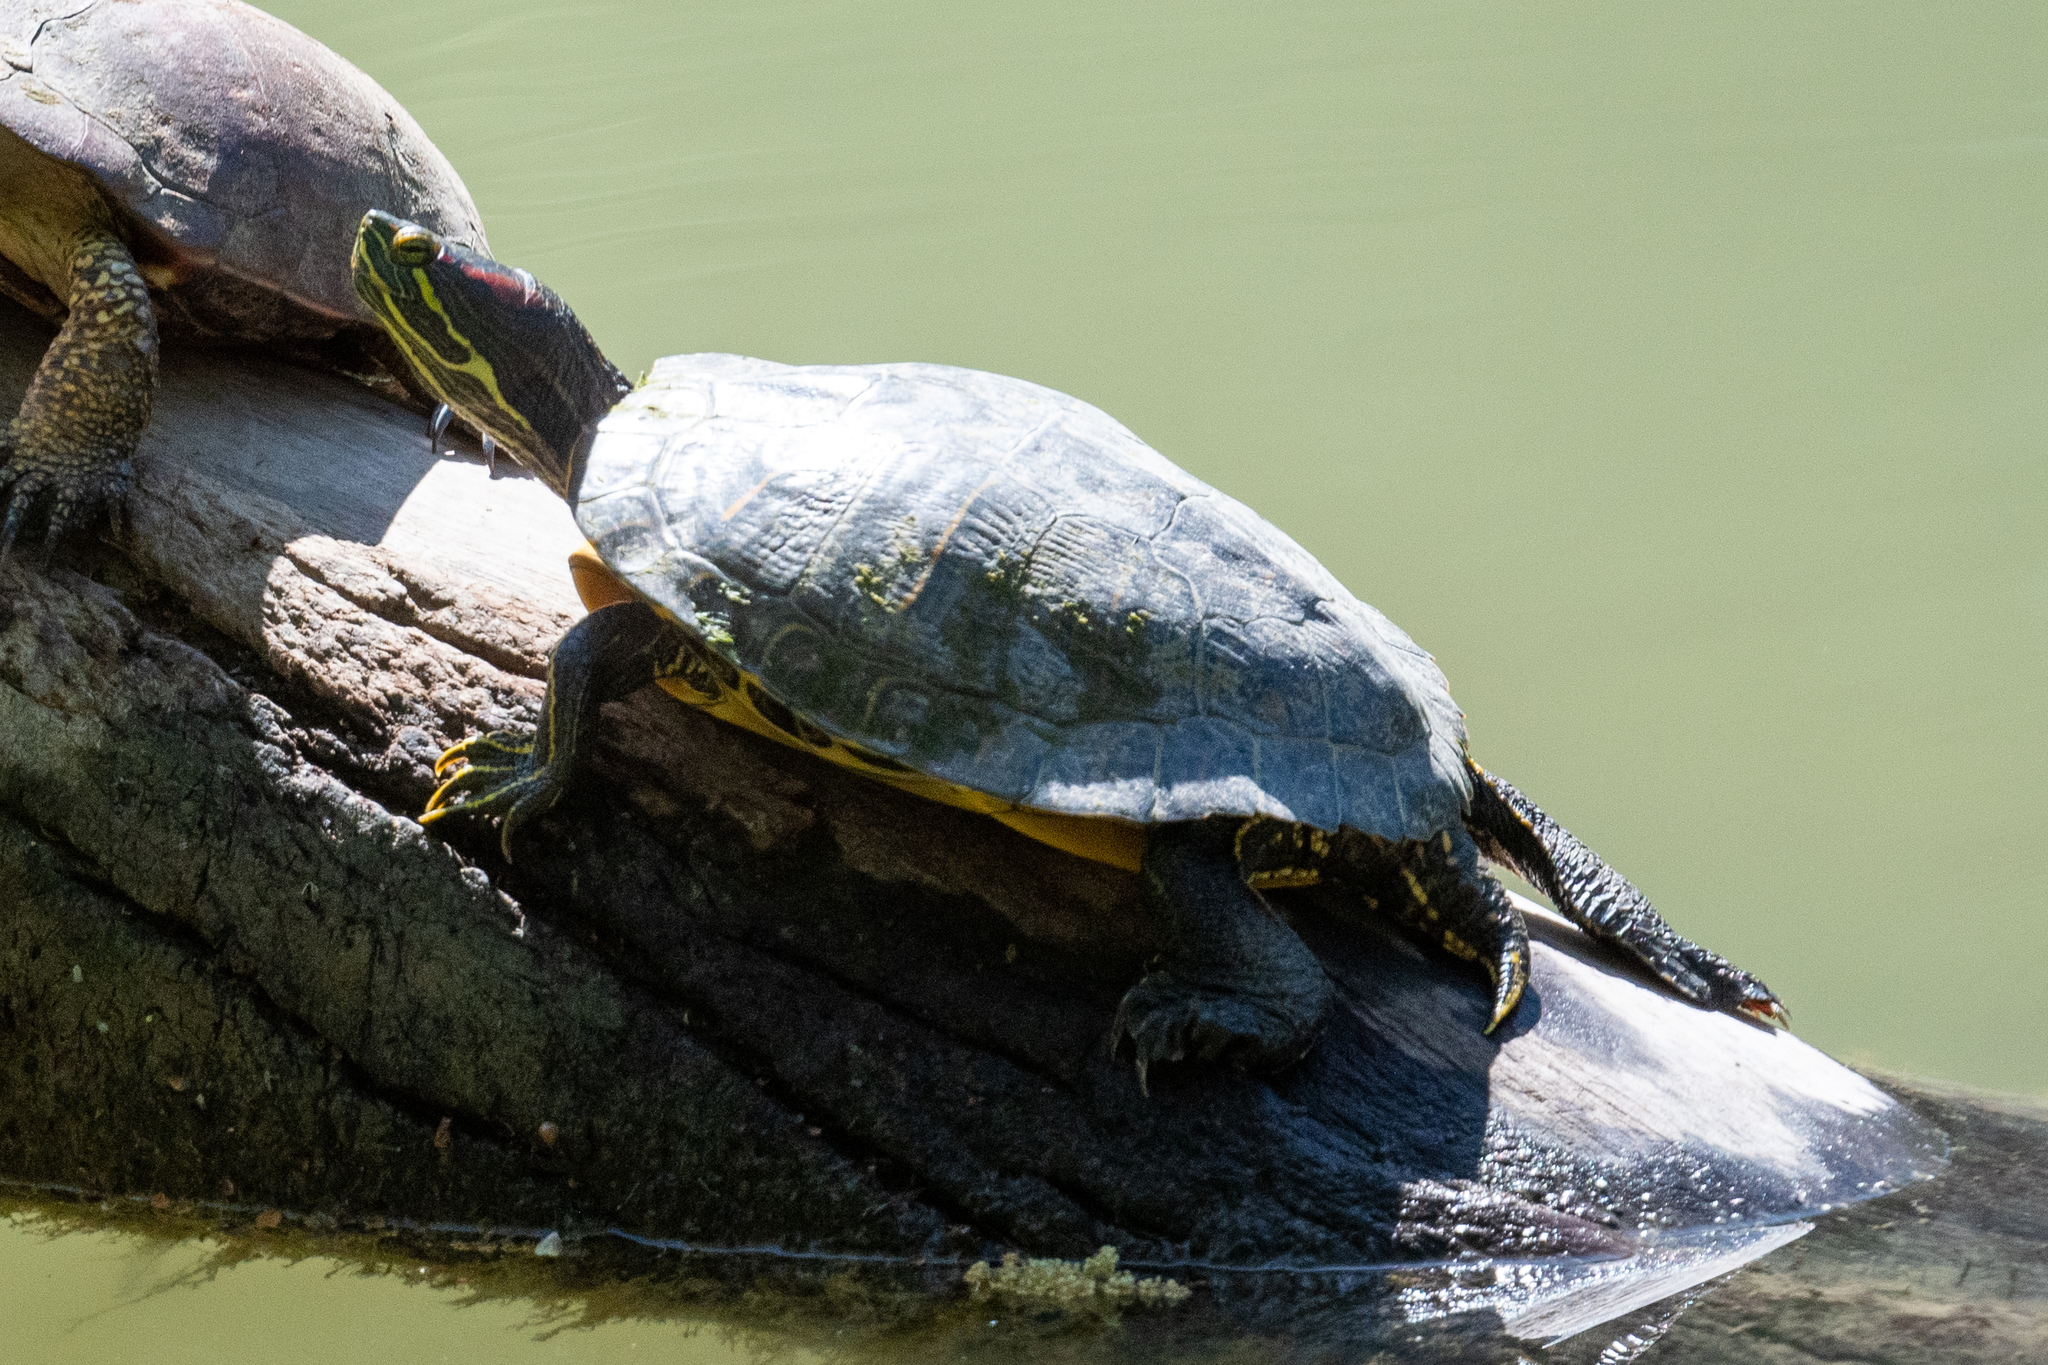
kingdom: Animalia
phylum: Chordata
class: Testudines
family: Emydidae
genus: Trachemys
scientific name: Trachemys scripta
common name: Slider
